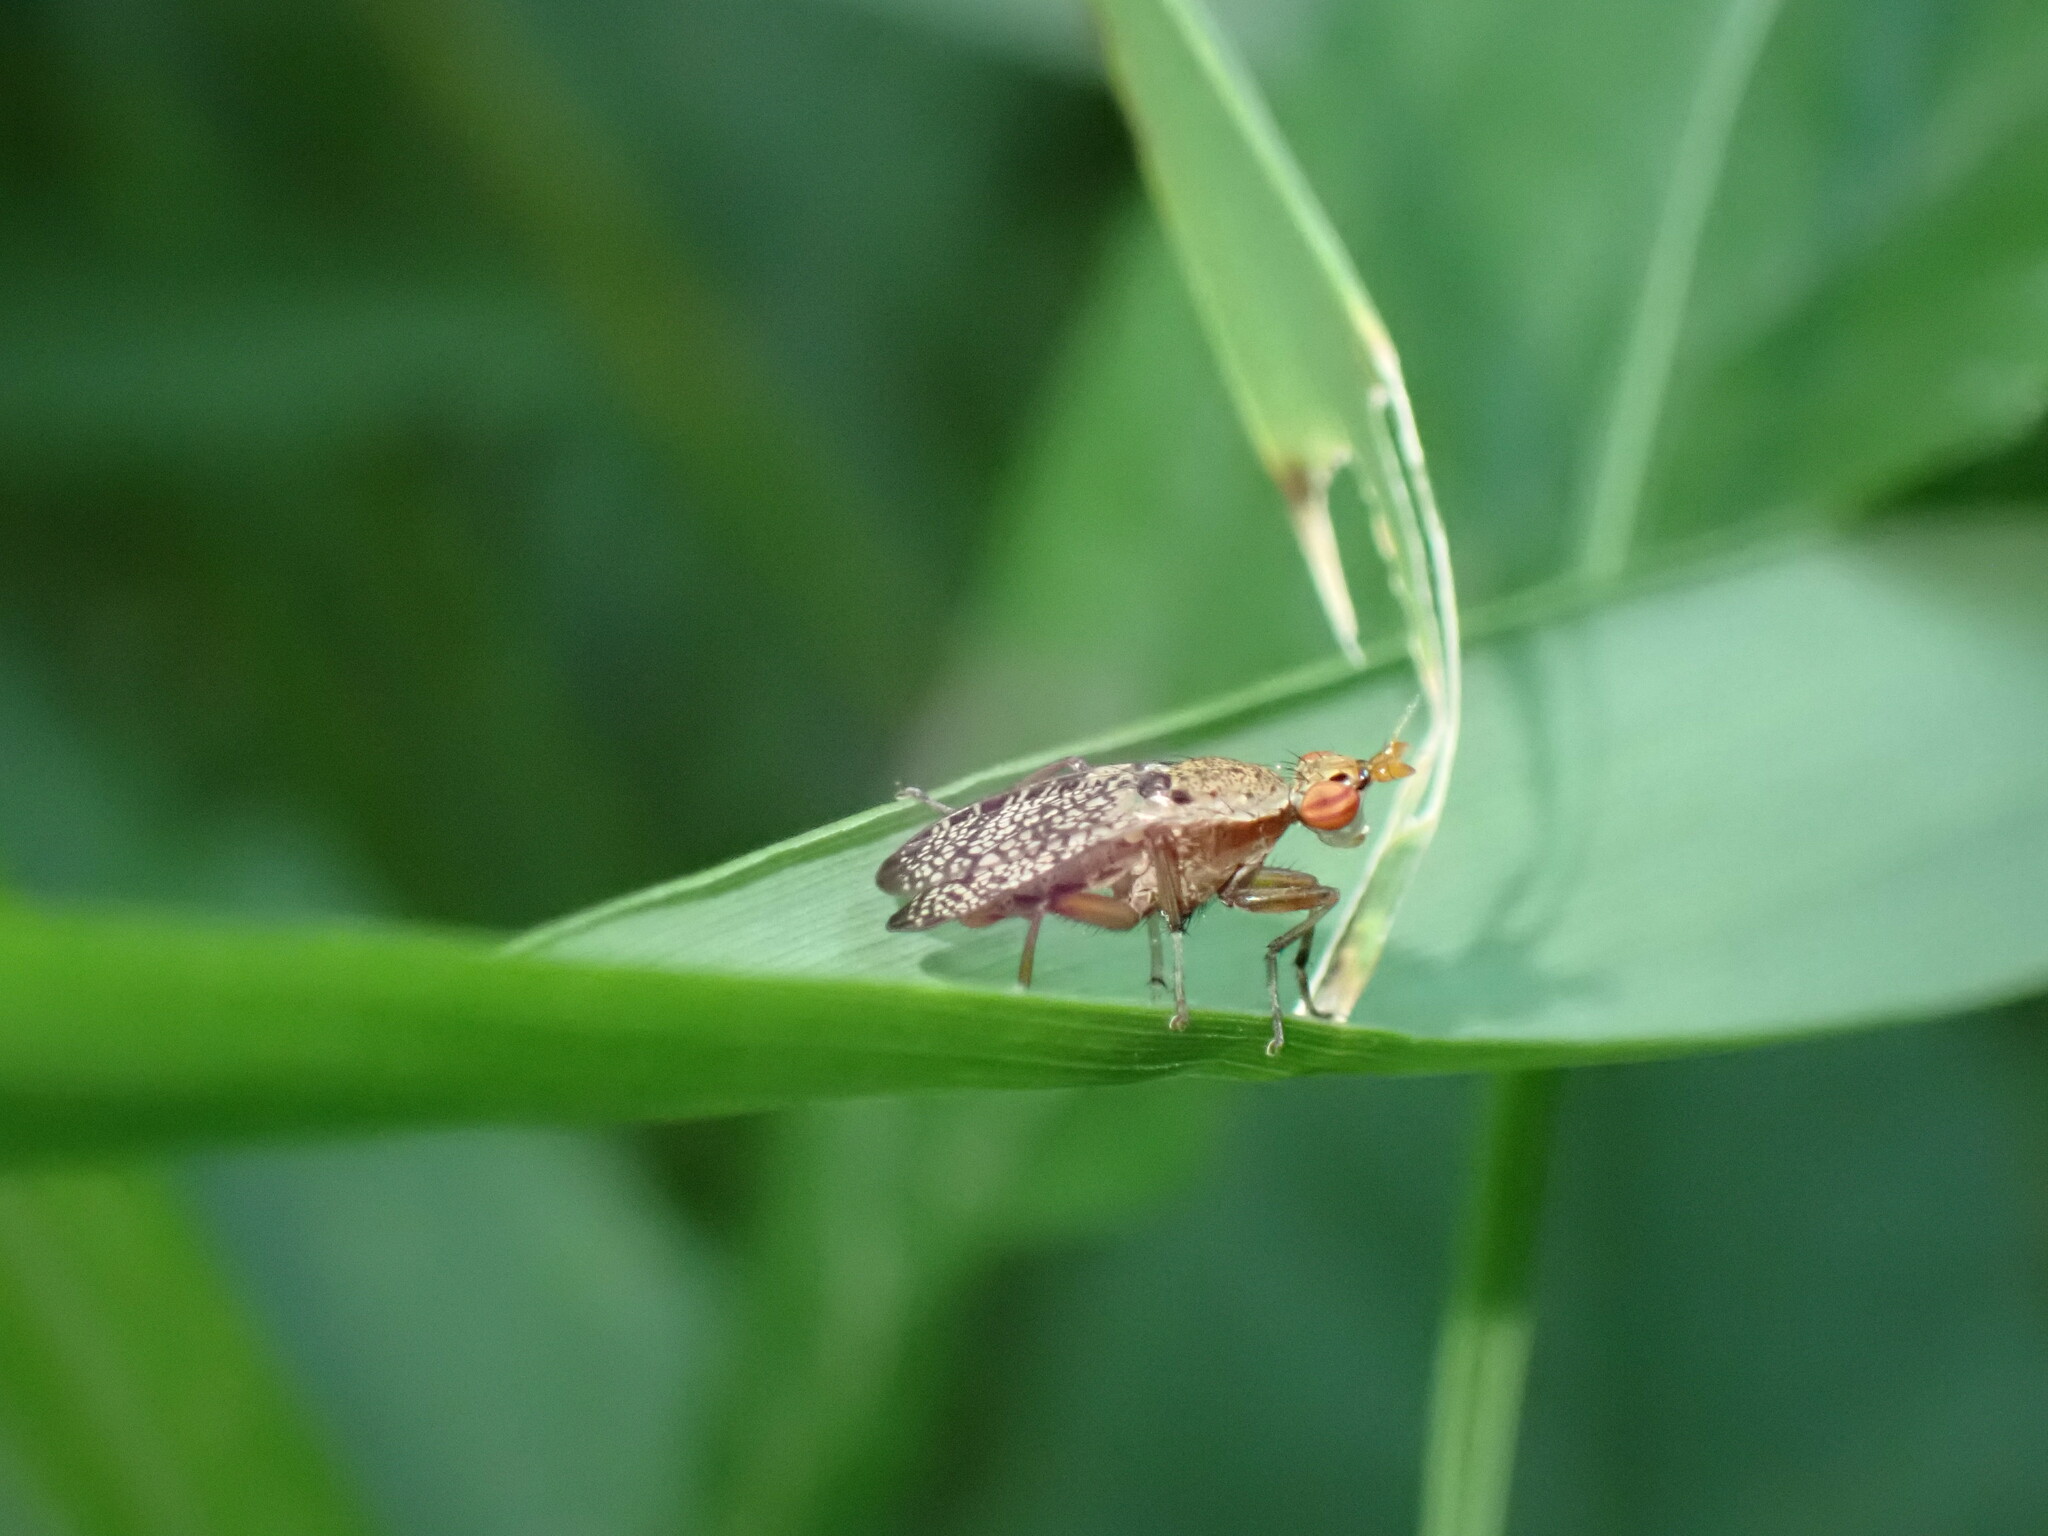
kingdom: Animalia
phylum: Arthropoda
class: Insecta
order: Diptera
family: Sciomyzidae
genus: Euthycera
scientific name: Euthycera flavescens
